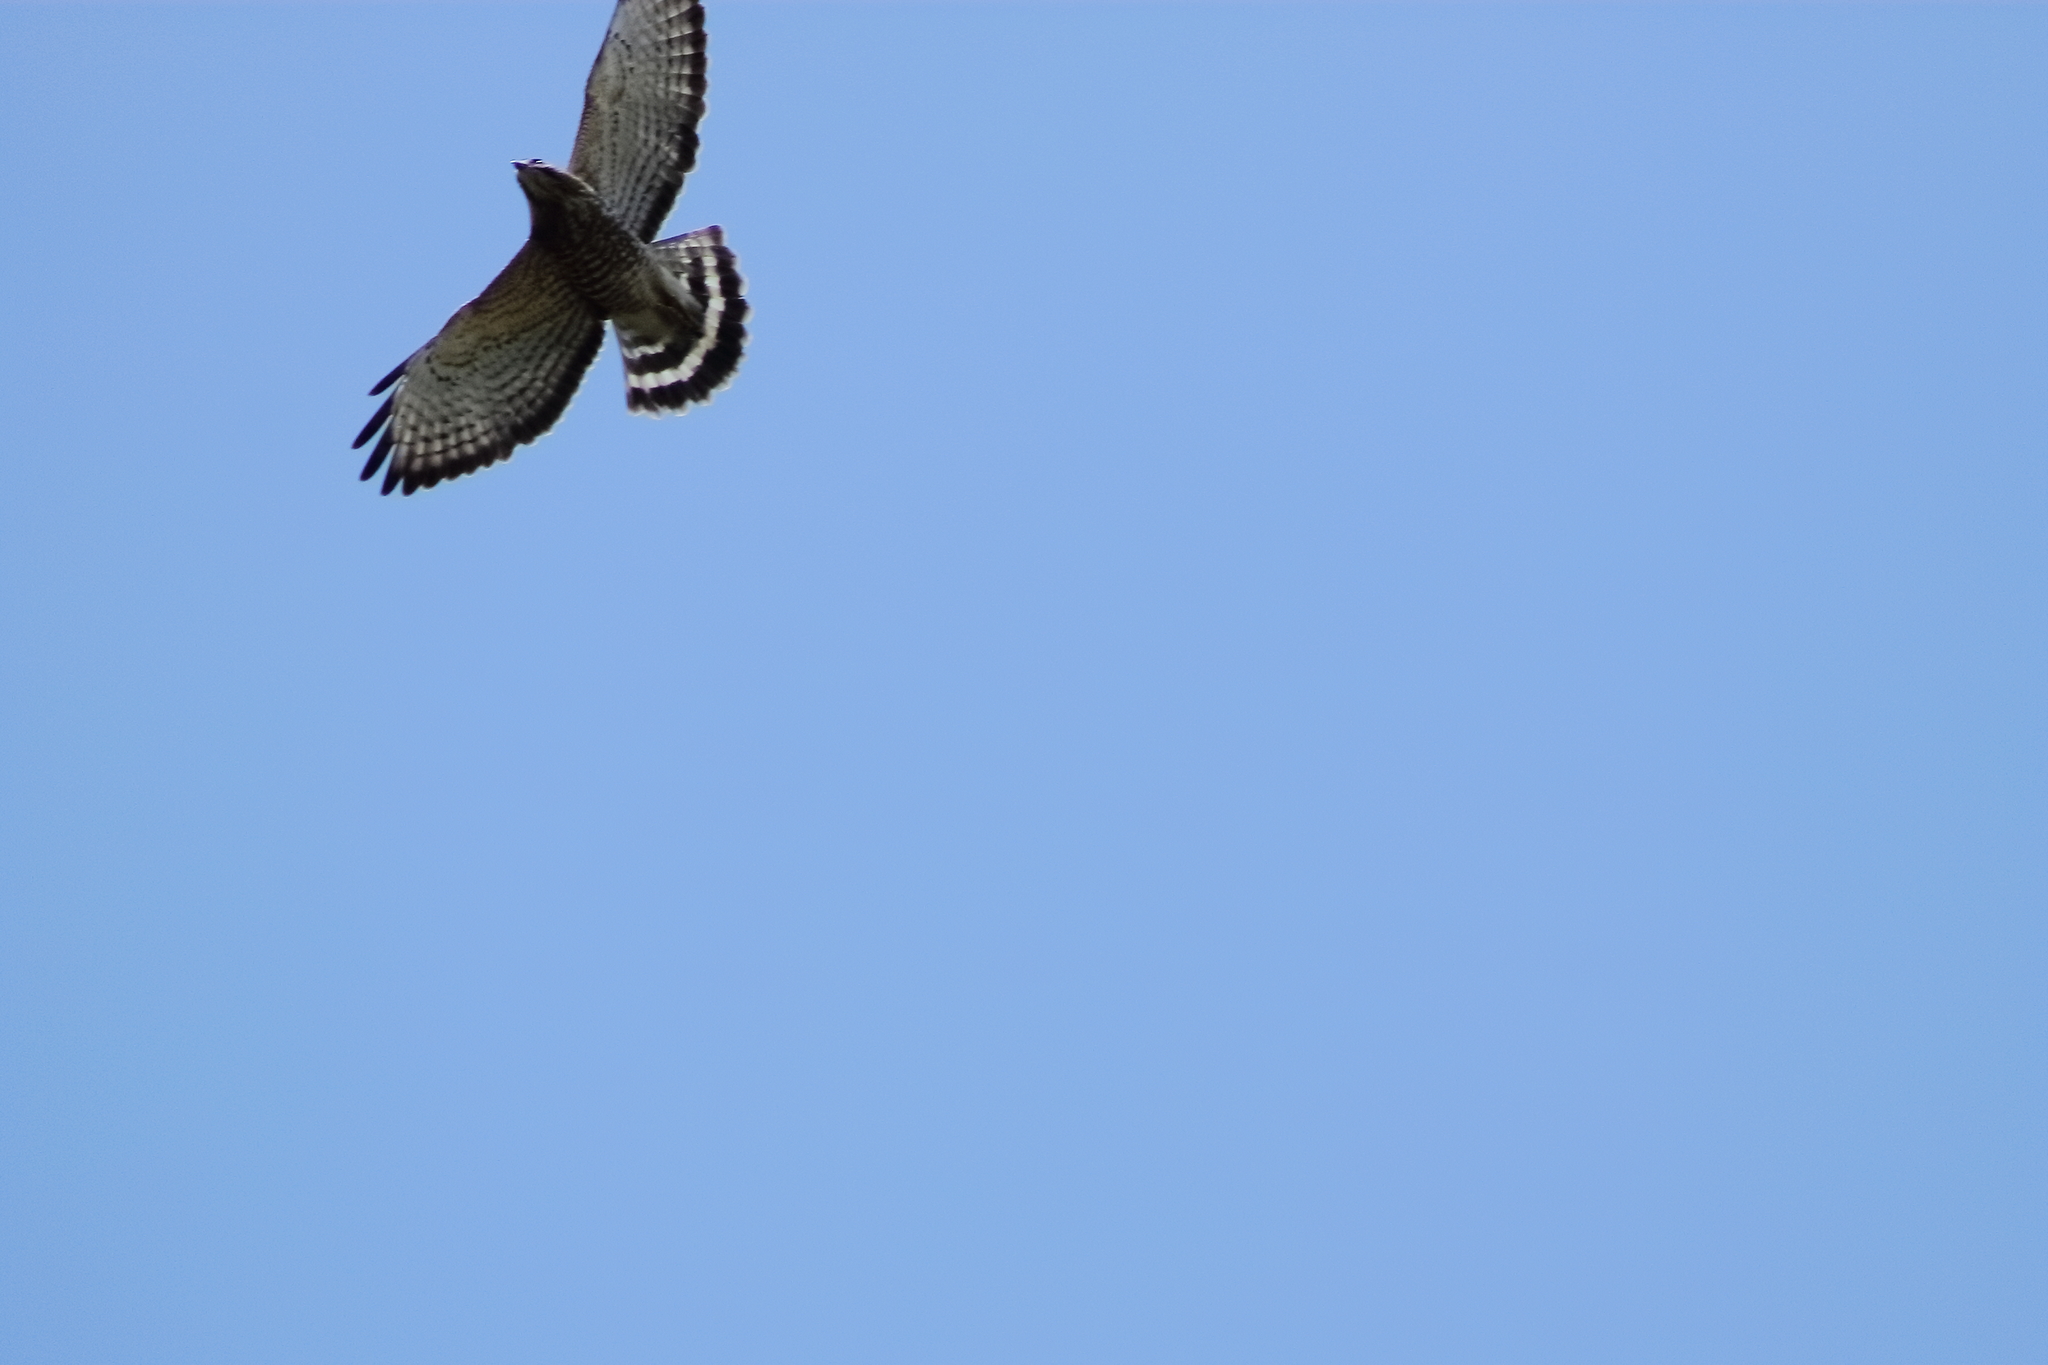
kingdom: Animalia
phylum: Chordata
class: Aves
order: Accipitriformes
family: Accipitridae
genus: Buteo
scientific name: Buteo platypterus
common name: Broad-winged hawk
